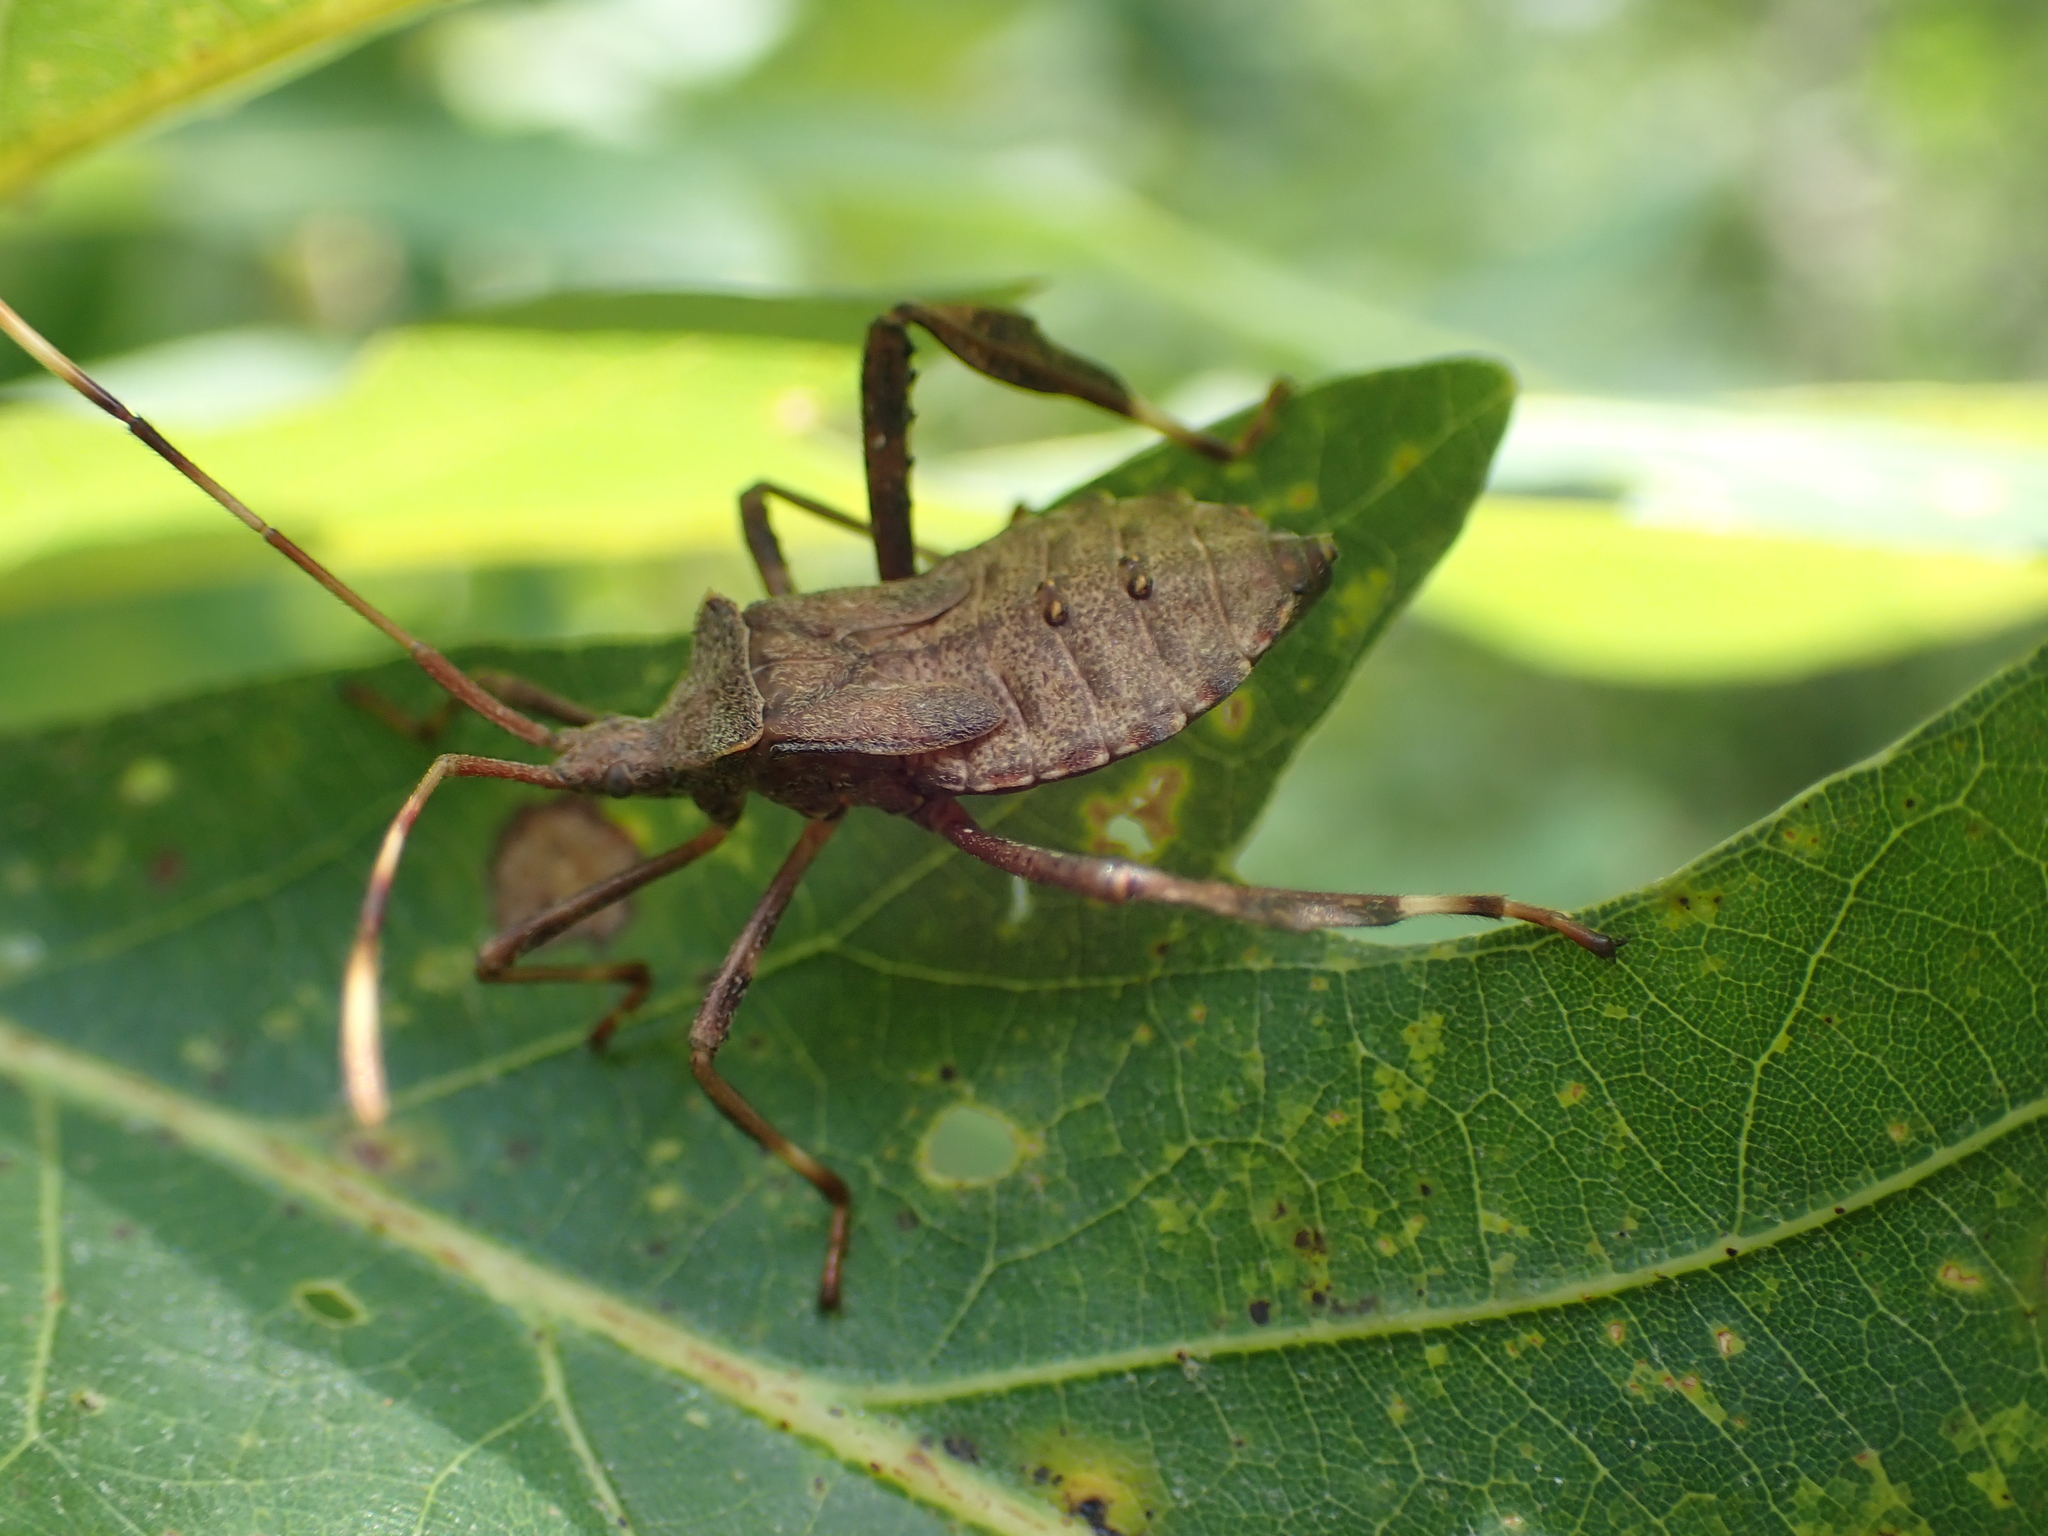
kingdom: Animalia
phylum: Arthropoda
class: Insecta
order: Hemiptera
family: Coreidae
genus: Acanthocephala
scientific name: Acanthocephala terminalis
